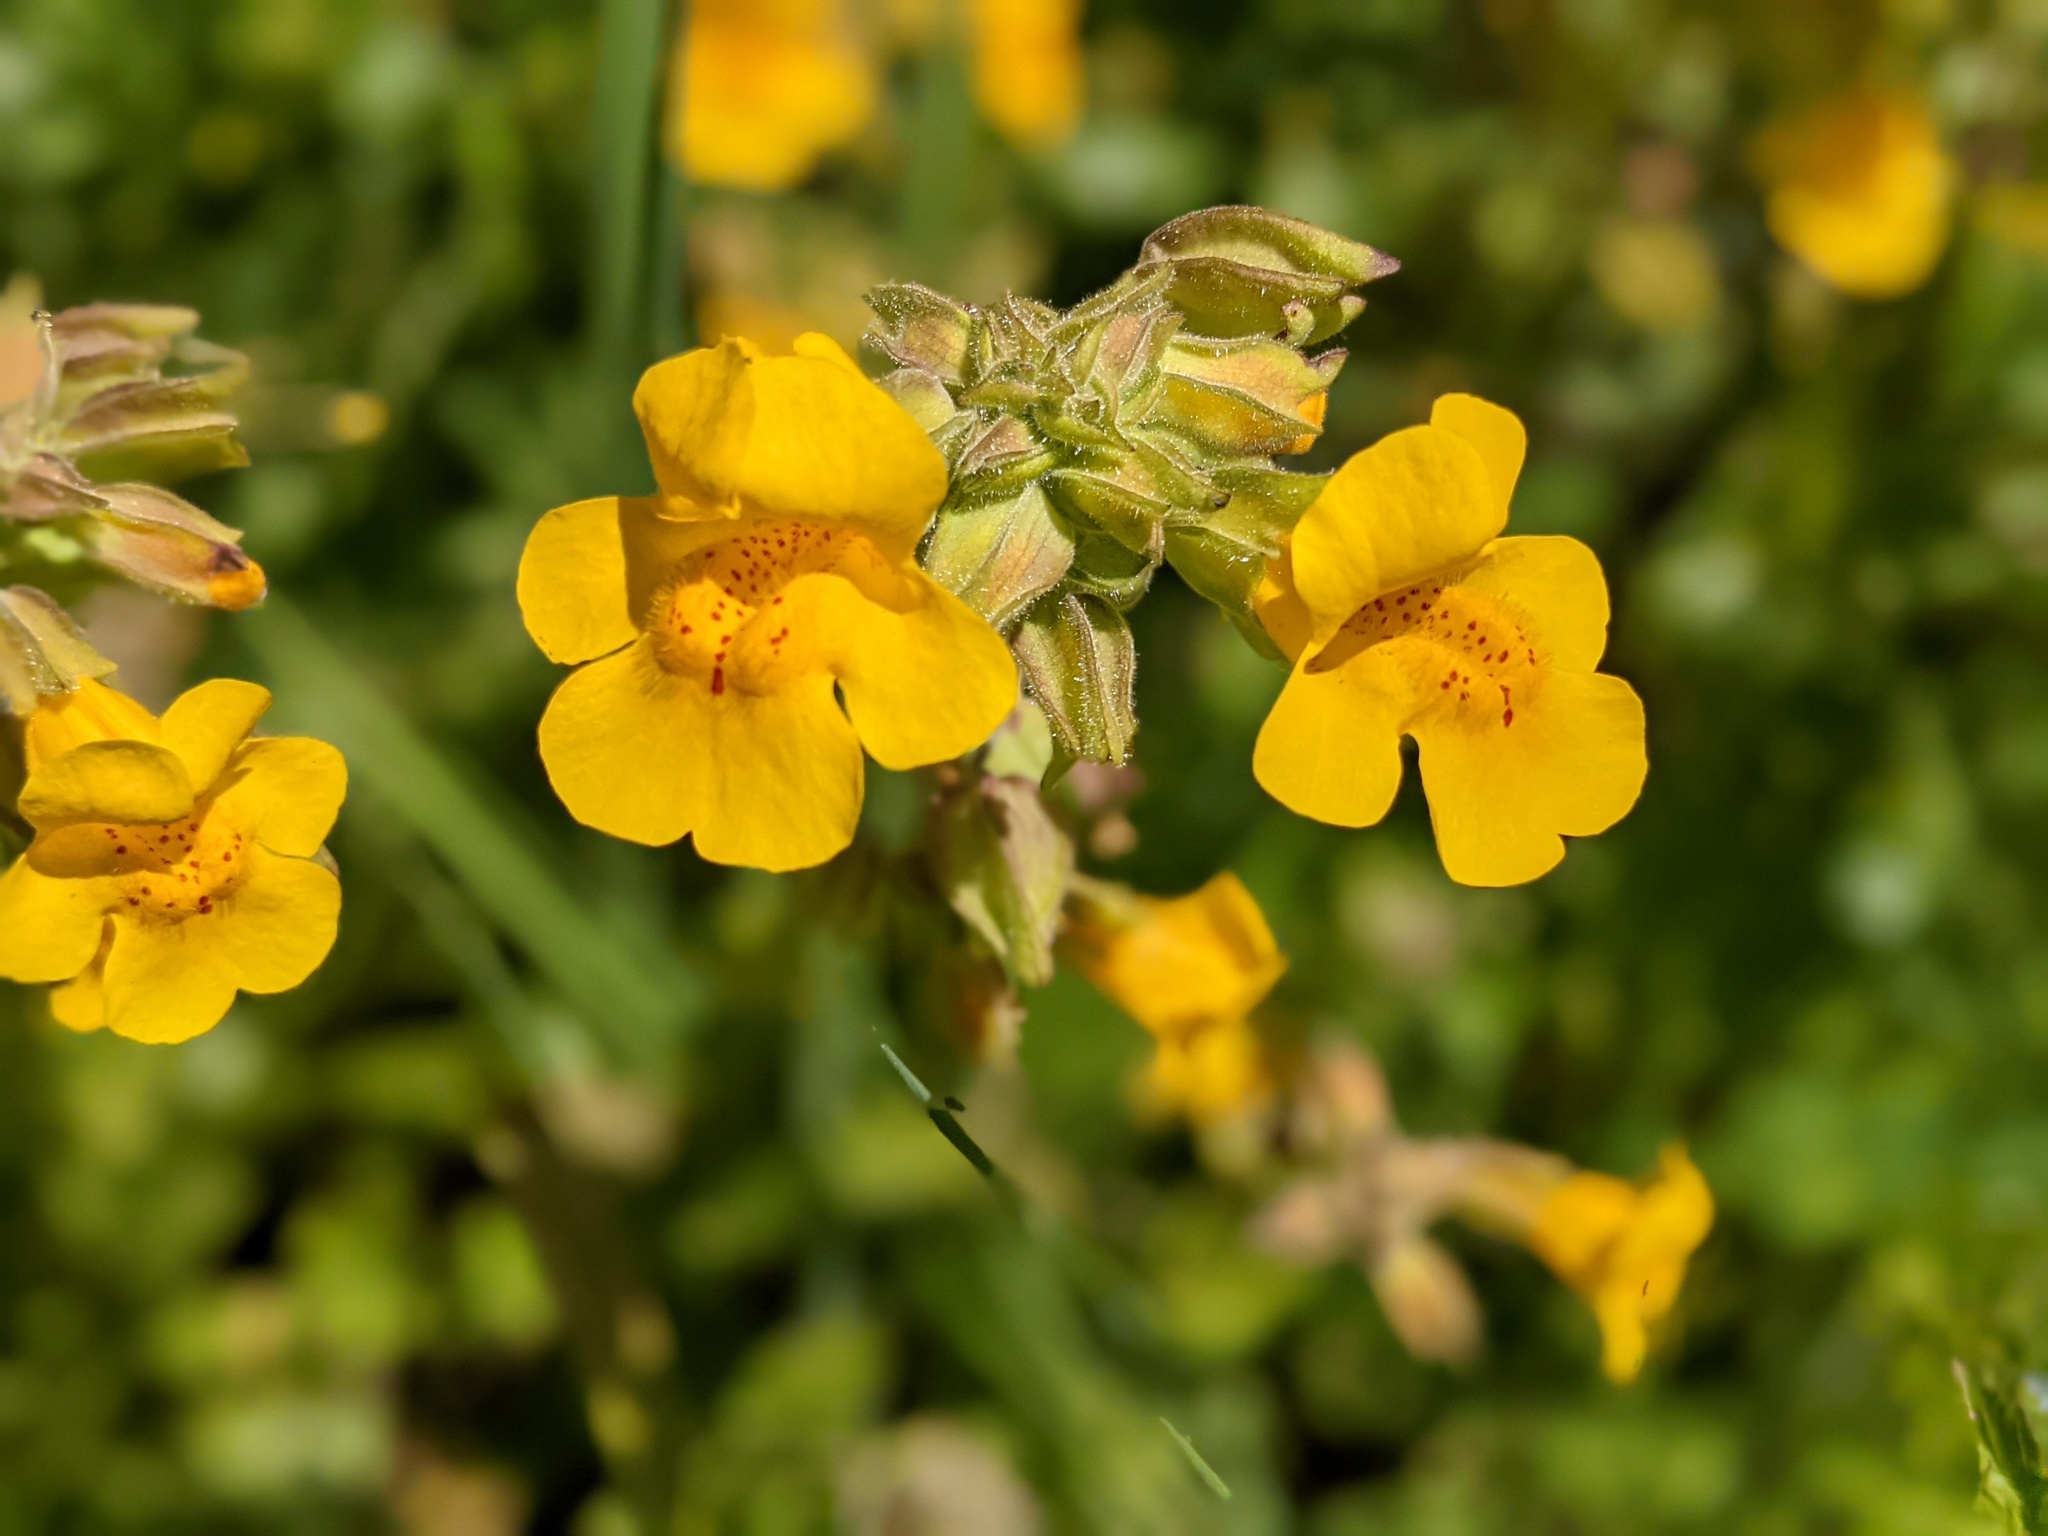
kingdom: Plantae
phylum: Tracheophyta
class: Magnoliopsida
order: Lamiales
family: Phrymaceae
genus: Erythranthe
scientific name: Erythranthe guttata
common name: Monkeyflower
